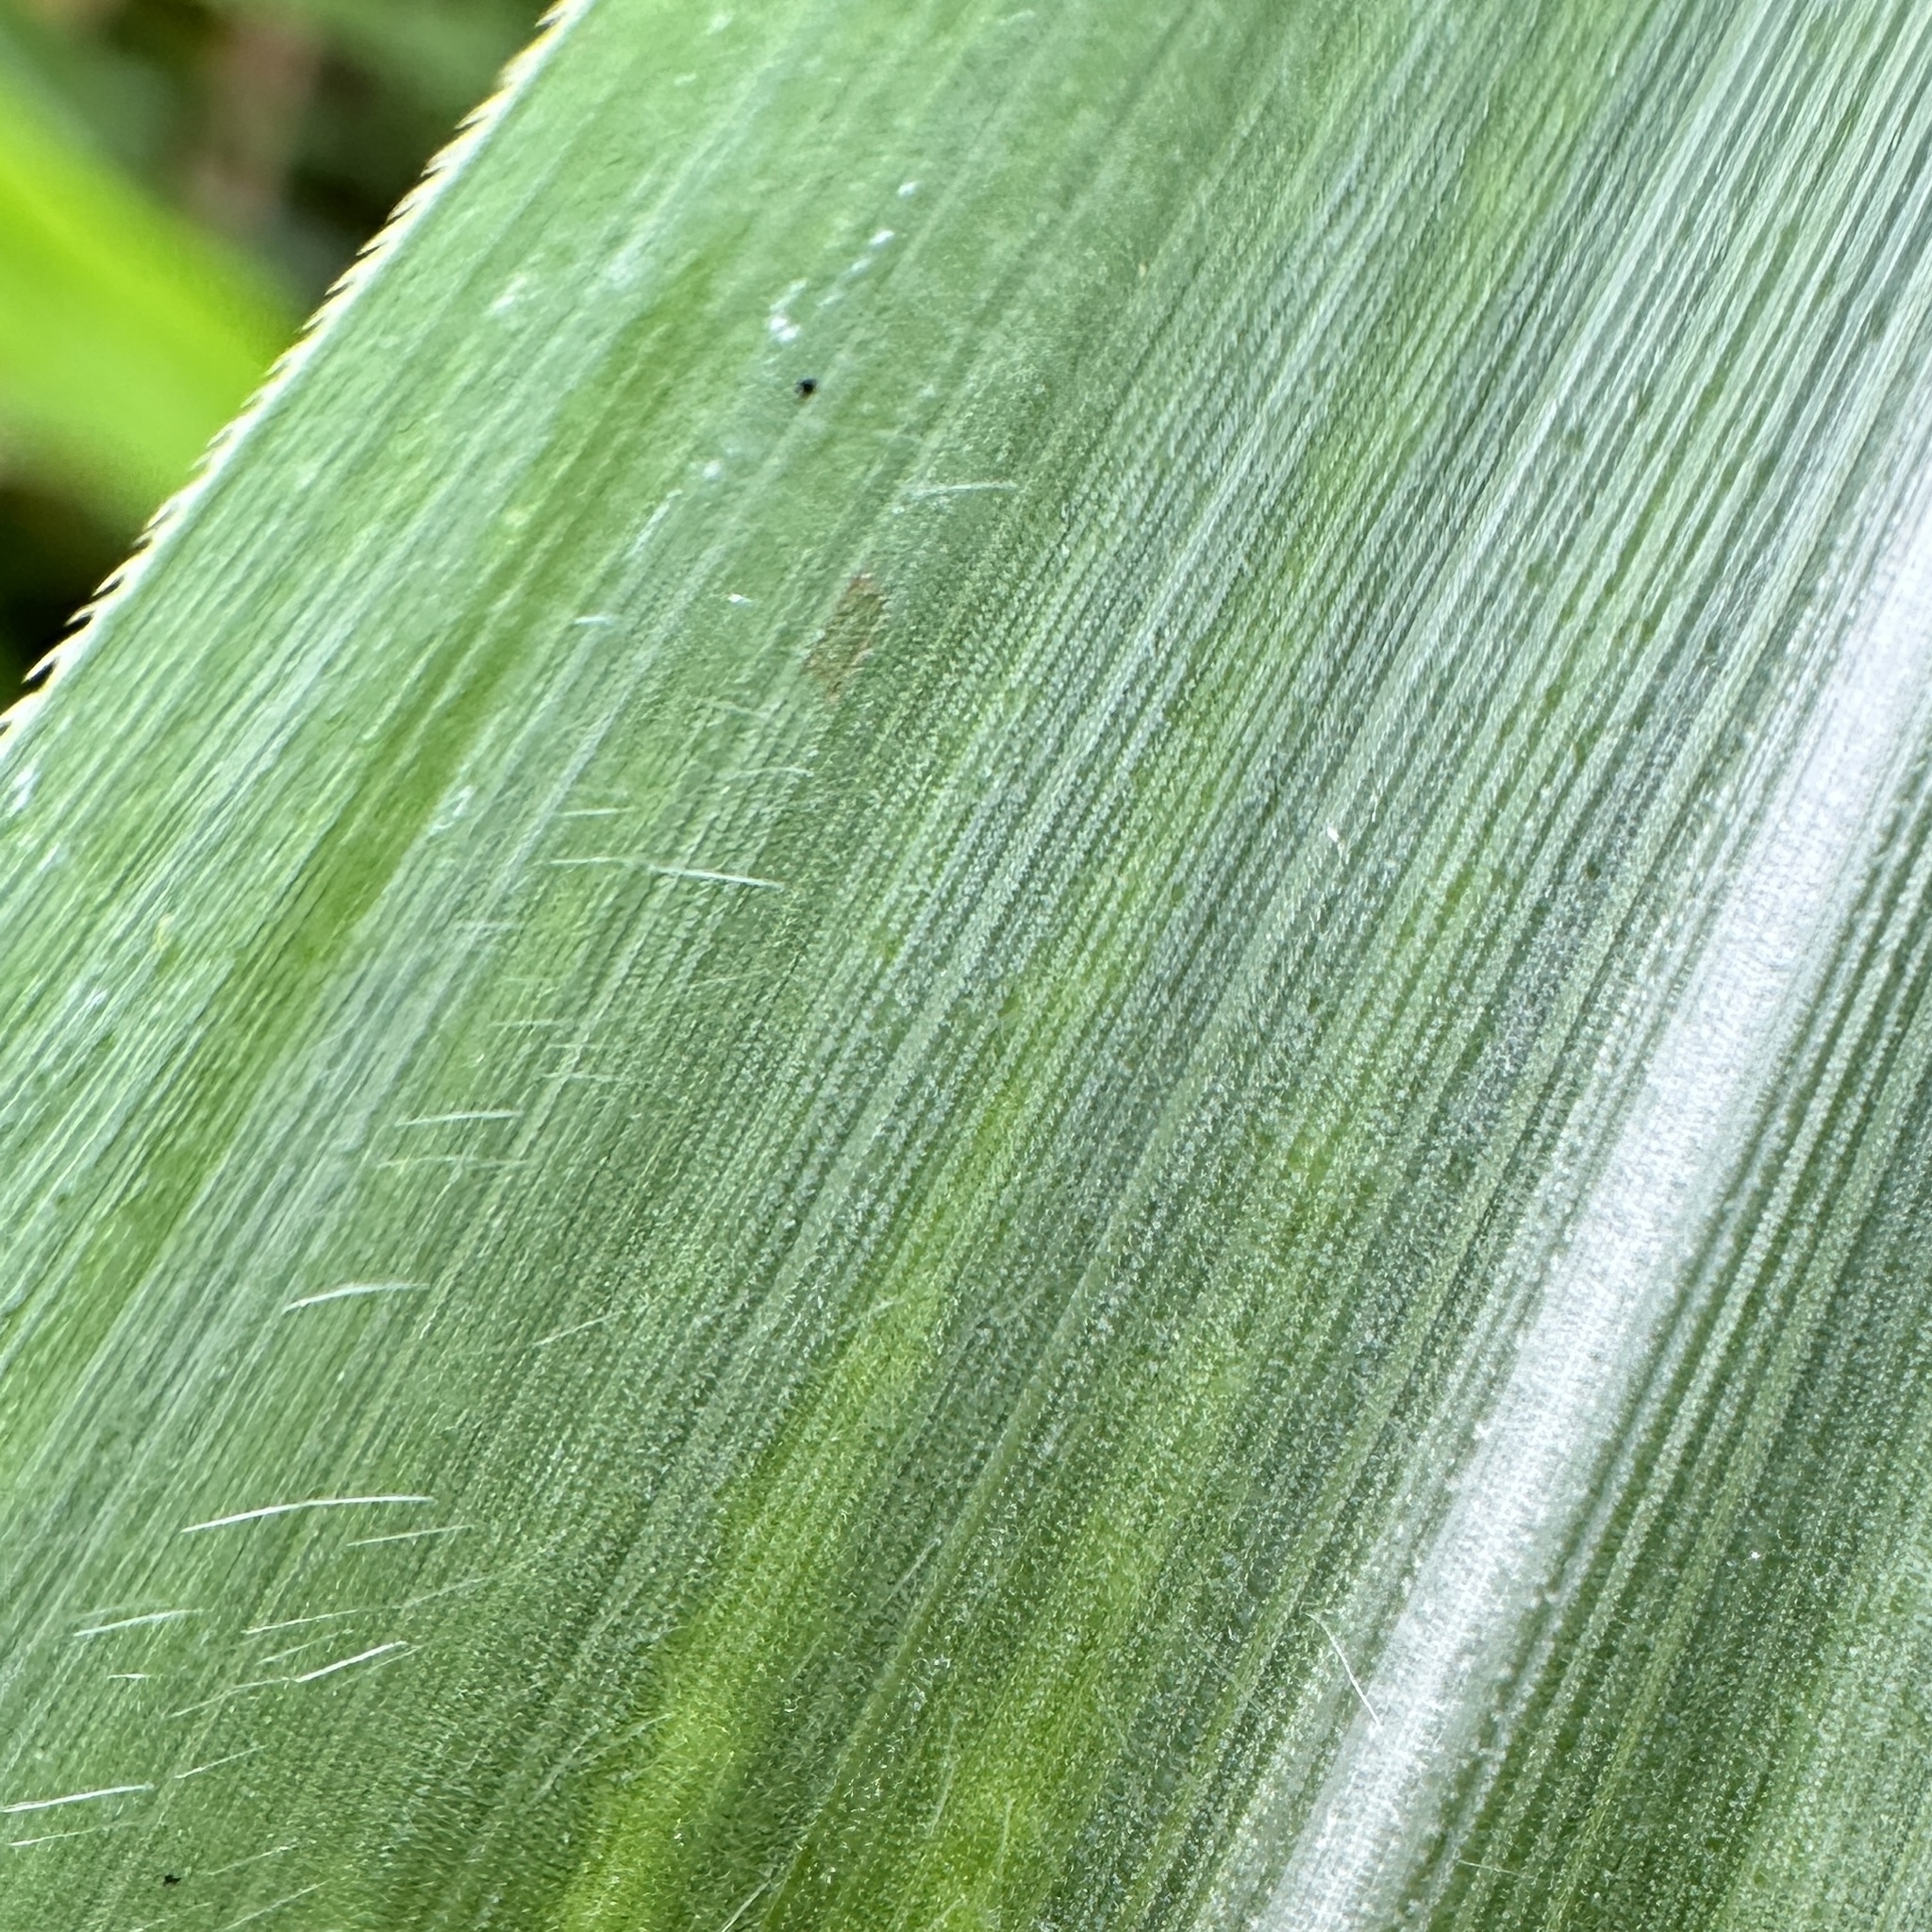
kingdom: Plantae
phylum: Tracheophyta
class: Liliopsida
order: Poales
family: Poaceae
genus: Cenchrus
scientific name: Cenchrus purpureus
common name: Elephant grass
